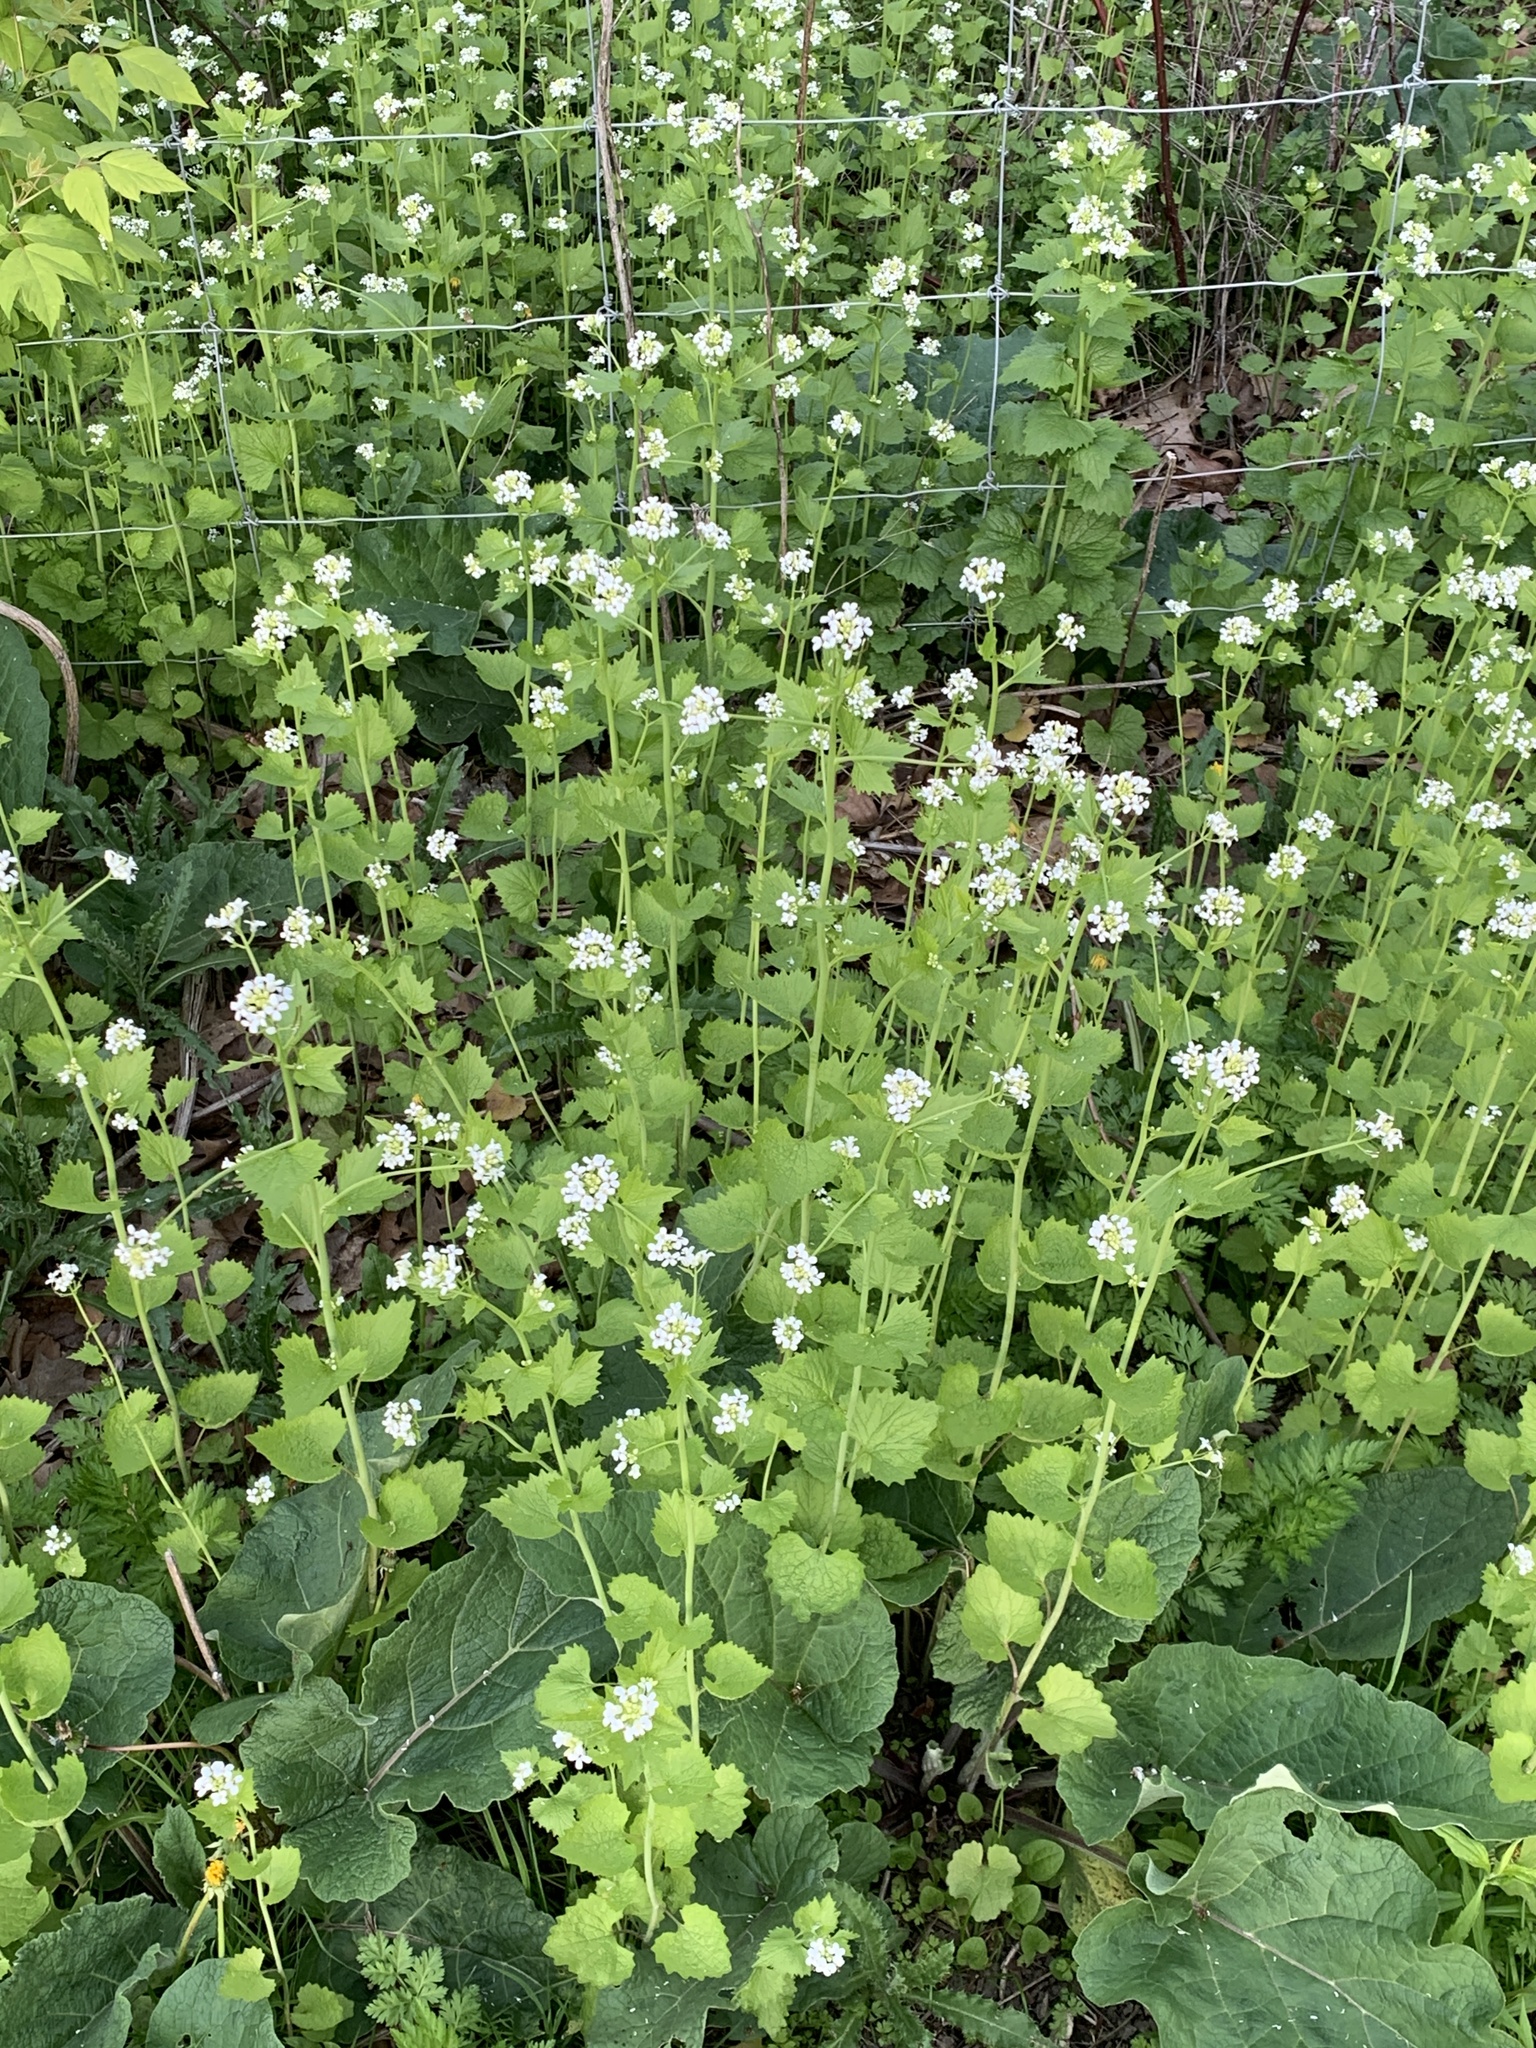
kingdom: Plantae
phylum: Tracheophyta
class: Magnoliopsida
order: Brassicales
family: Brassicaceae
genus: Alliaria
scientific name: Alliaria petiolata
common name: Garlic mustard
